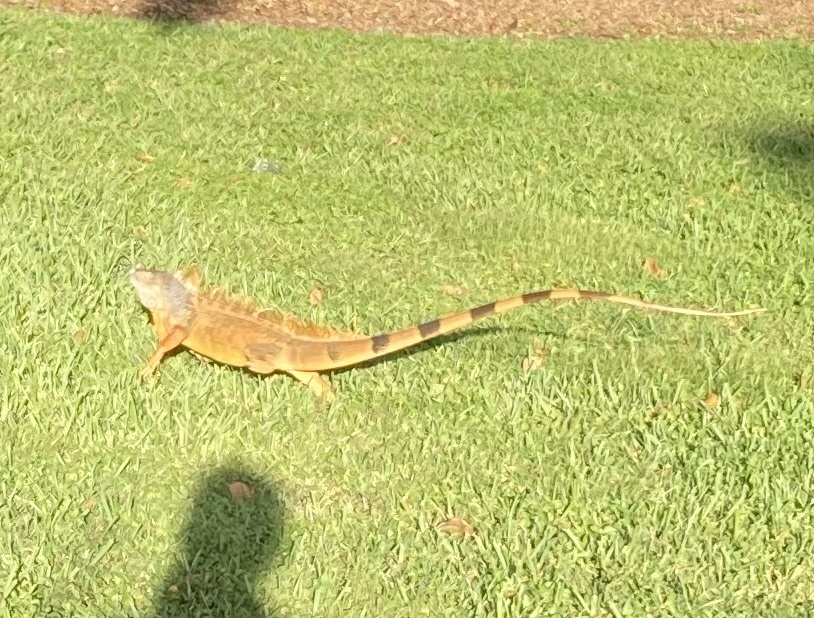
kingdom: Animalia
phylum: Chordata
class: Squamata
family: Iguanidae
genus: Iguana
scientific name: Iguana iguana
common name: Green iguana
